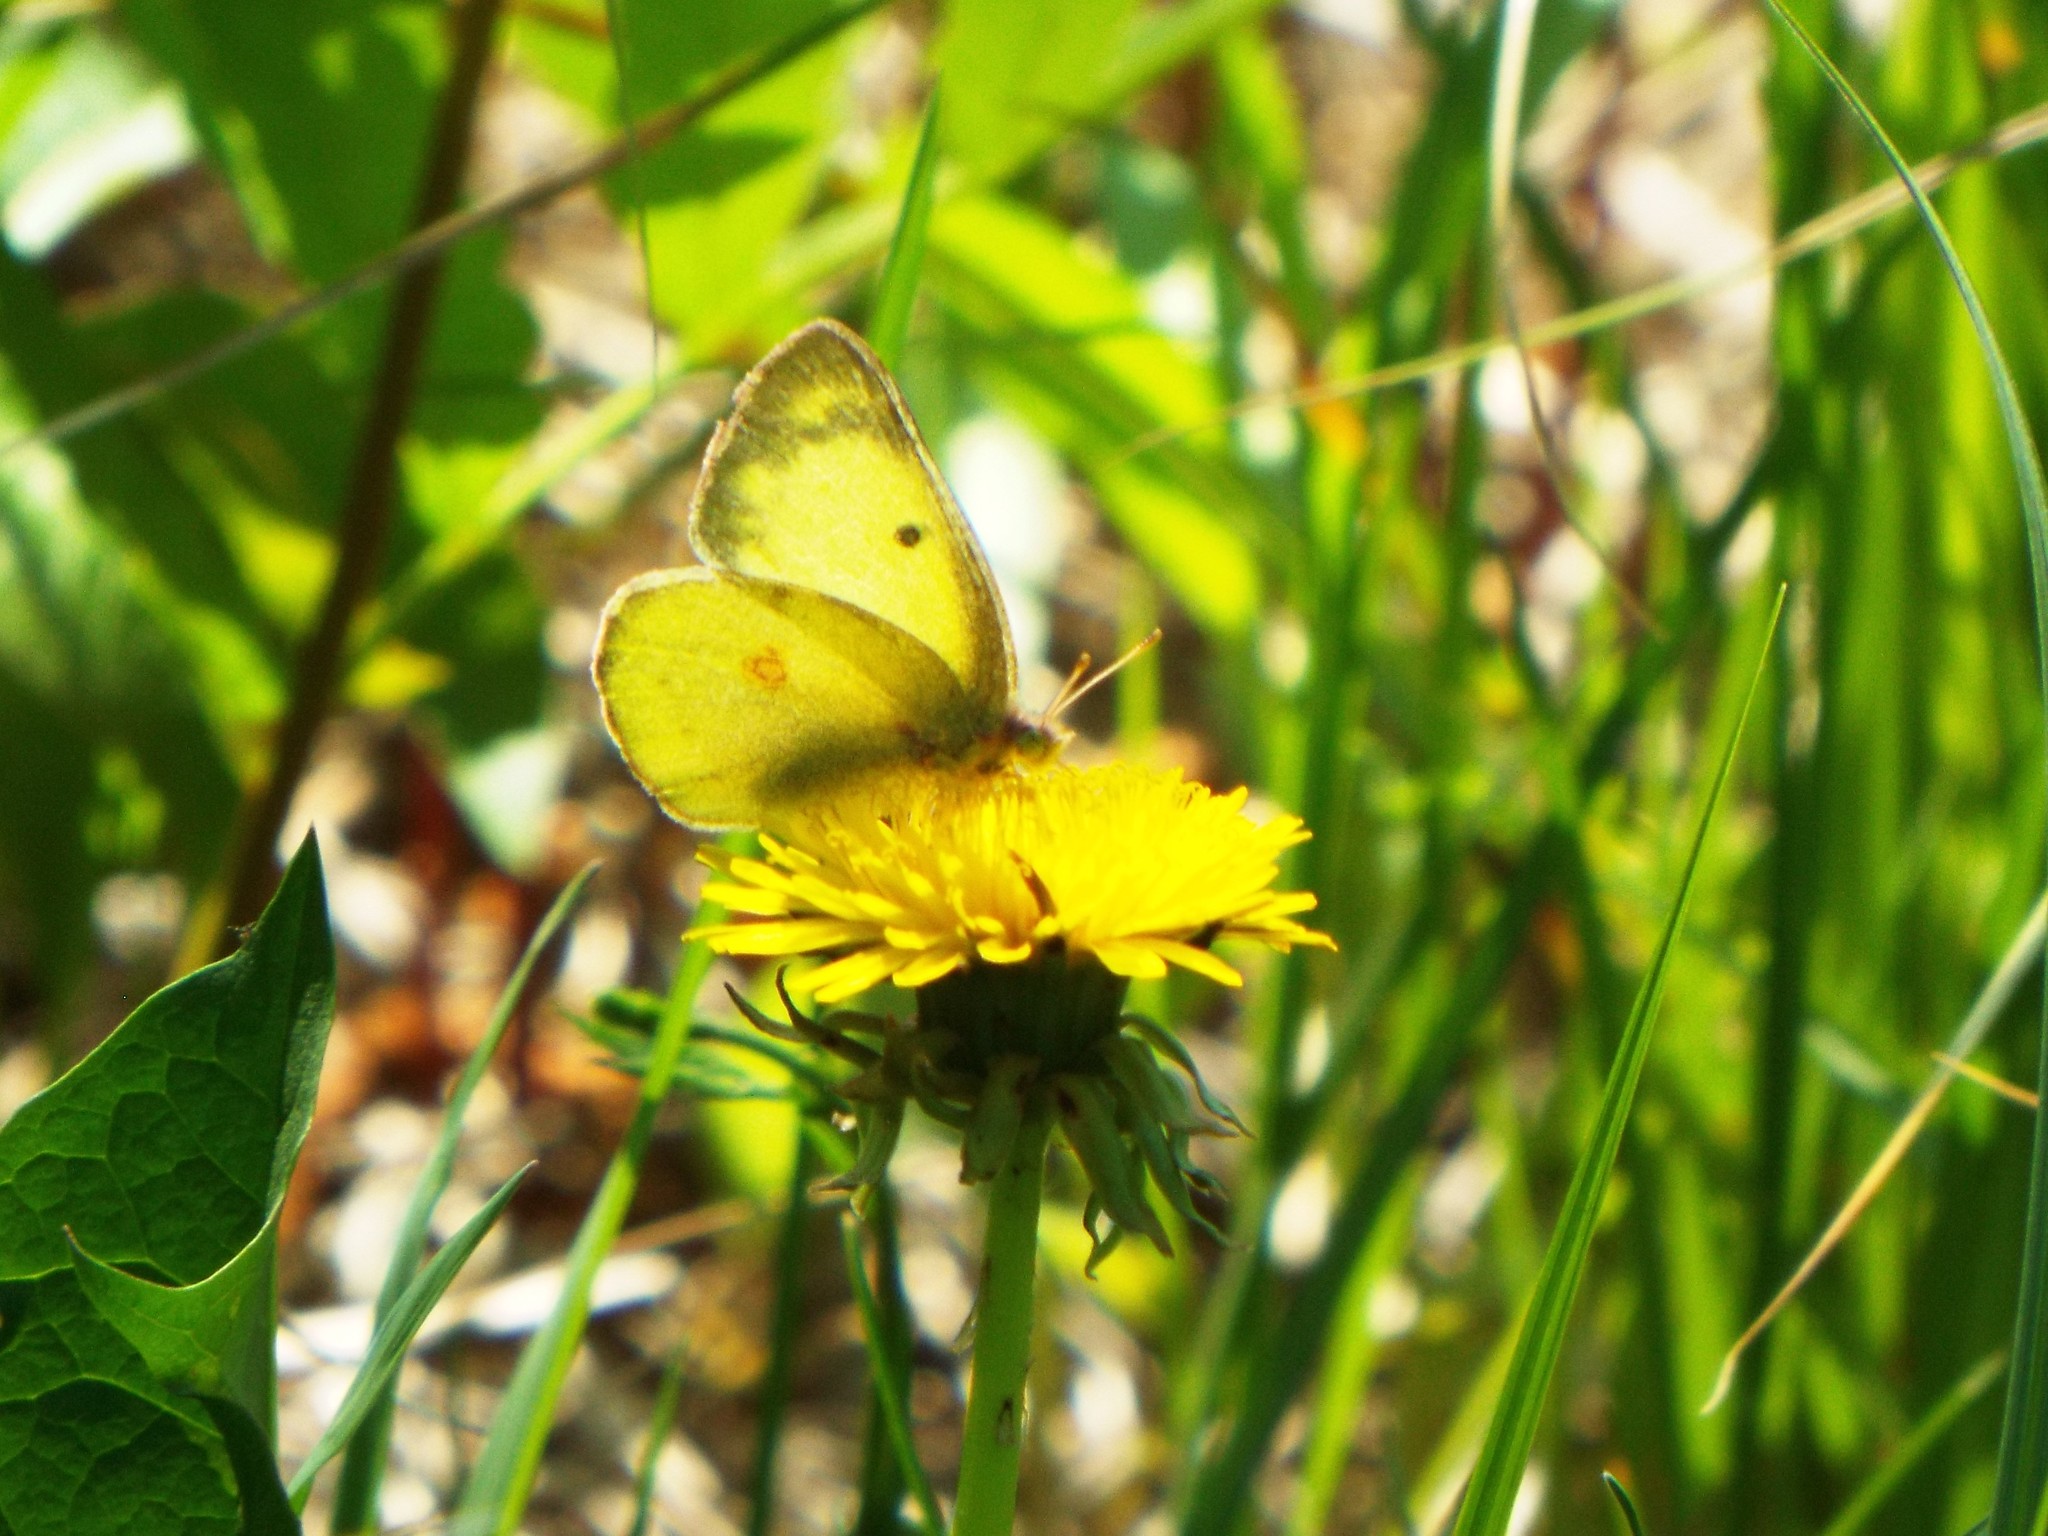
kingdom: Animalia
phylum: Arthropoda
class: Insecta
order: Lepidoptera
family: Pieridae
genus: Colias
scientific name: Colias philodice
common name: Clouded sulphur
